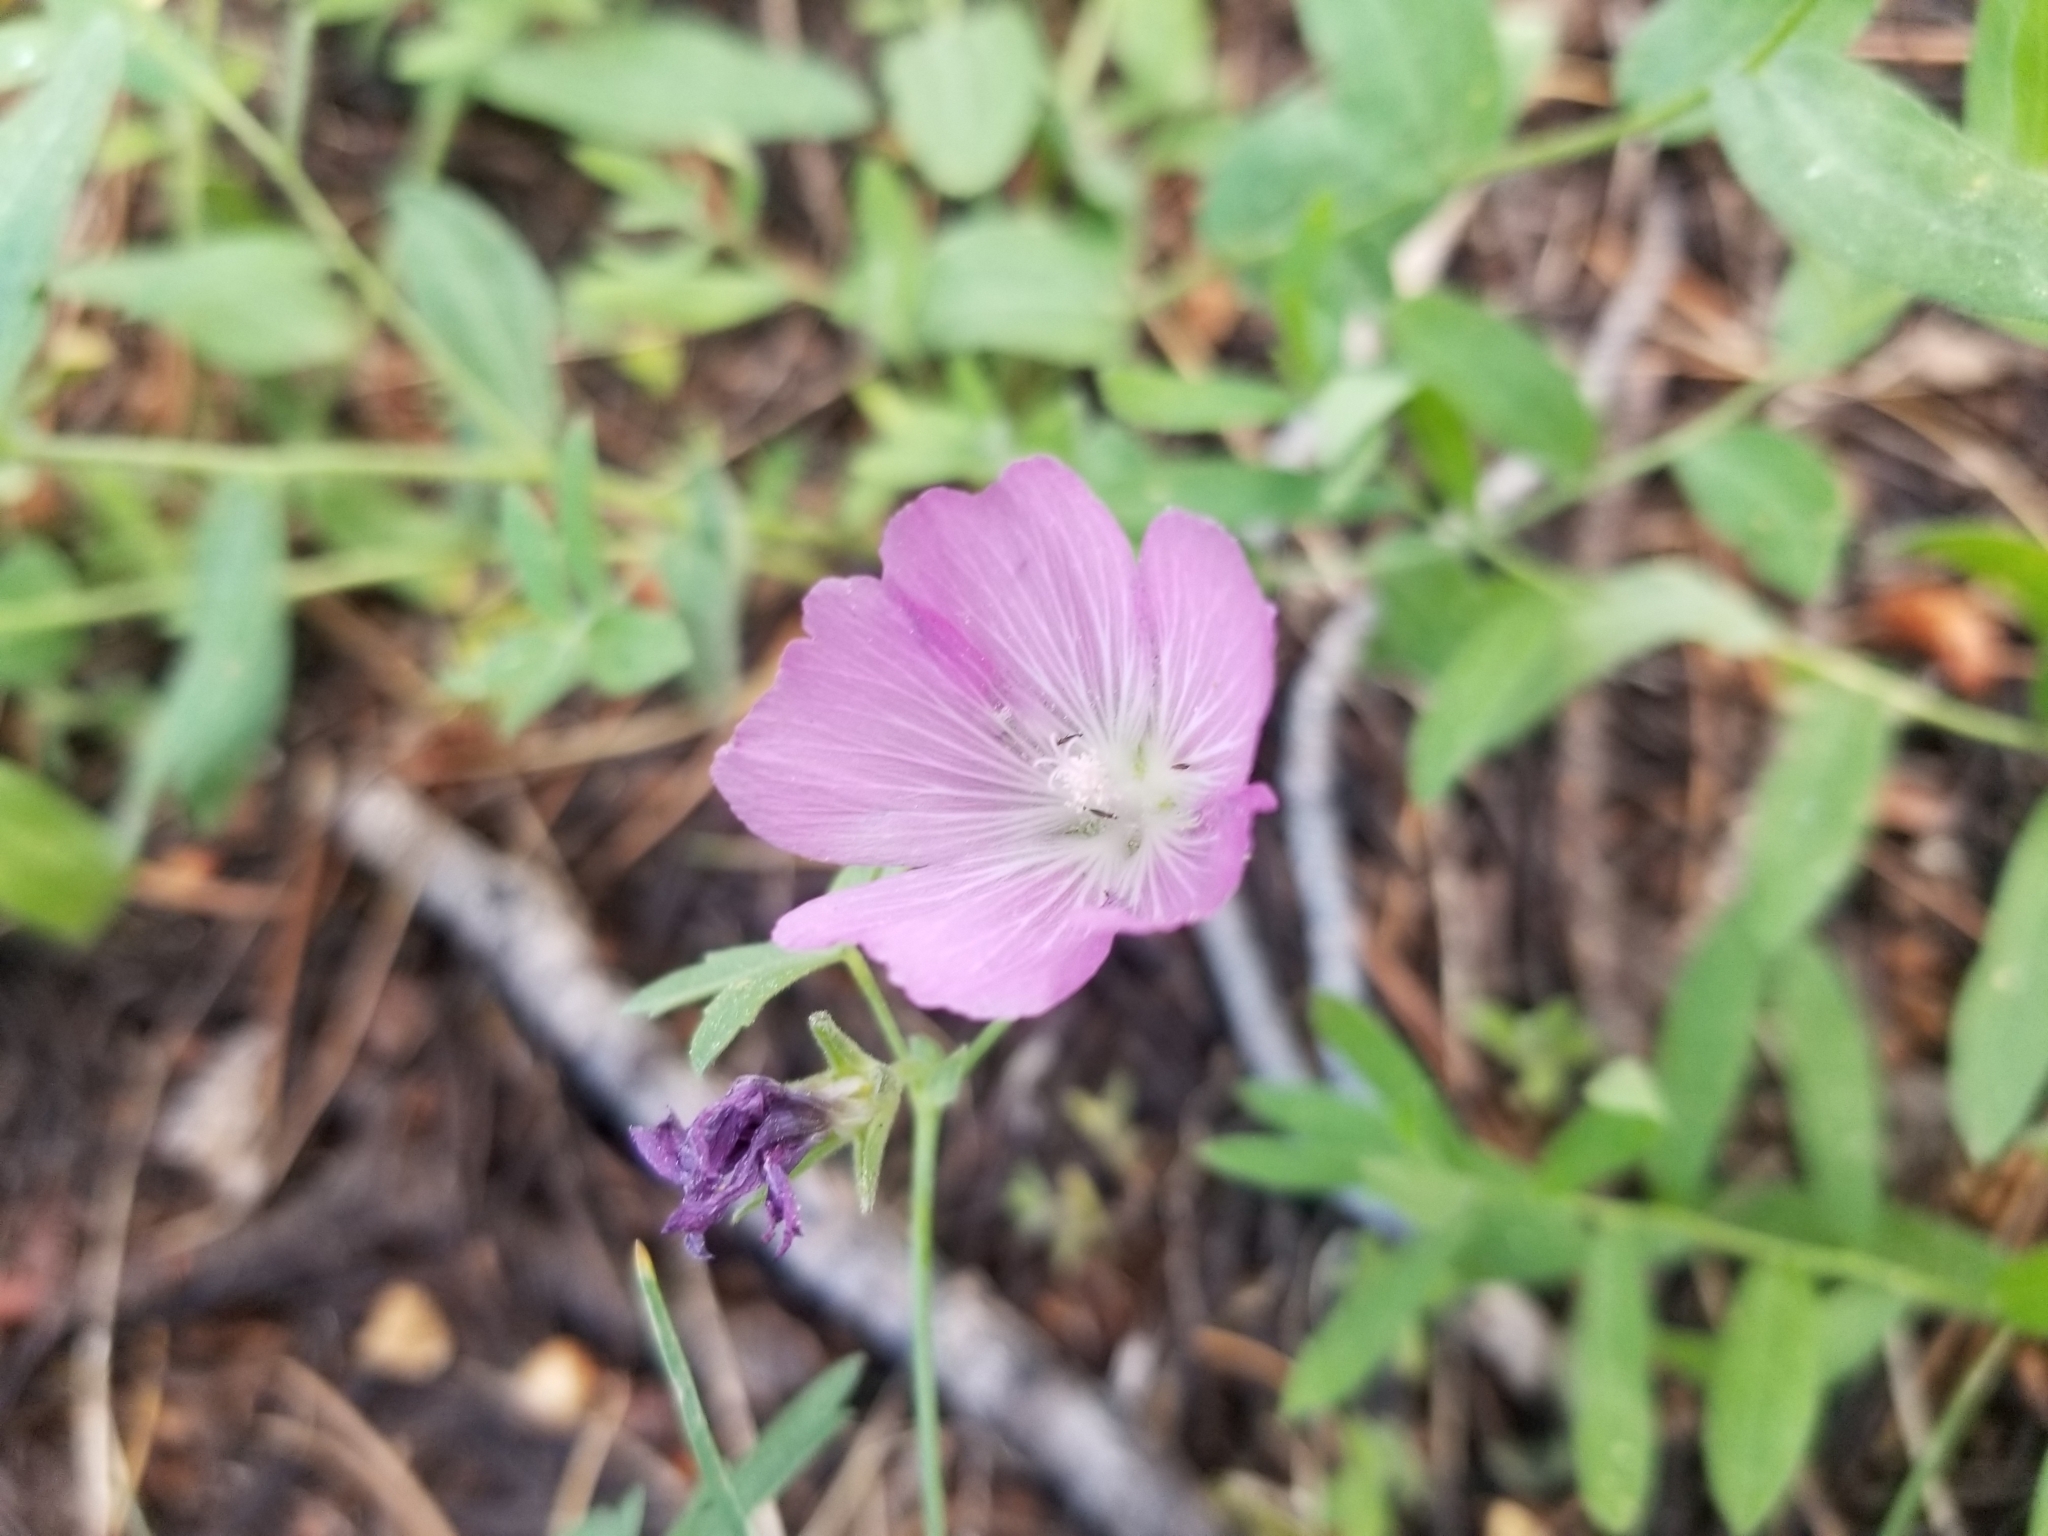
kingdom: Plantae
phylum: Tracheophyta
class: Magnoliopsida
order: Malvales
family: Malvaceae
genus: Sidalcea
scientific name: Sidalcea glaucescens
